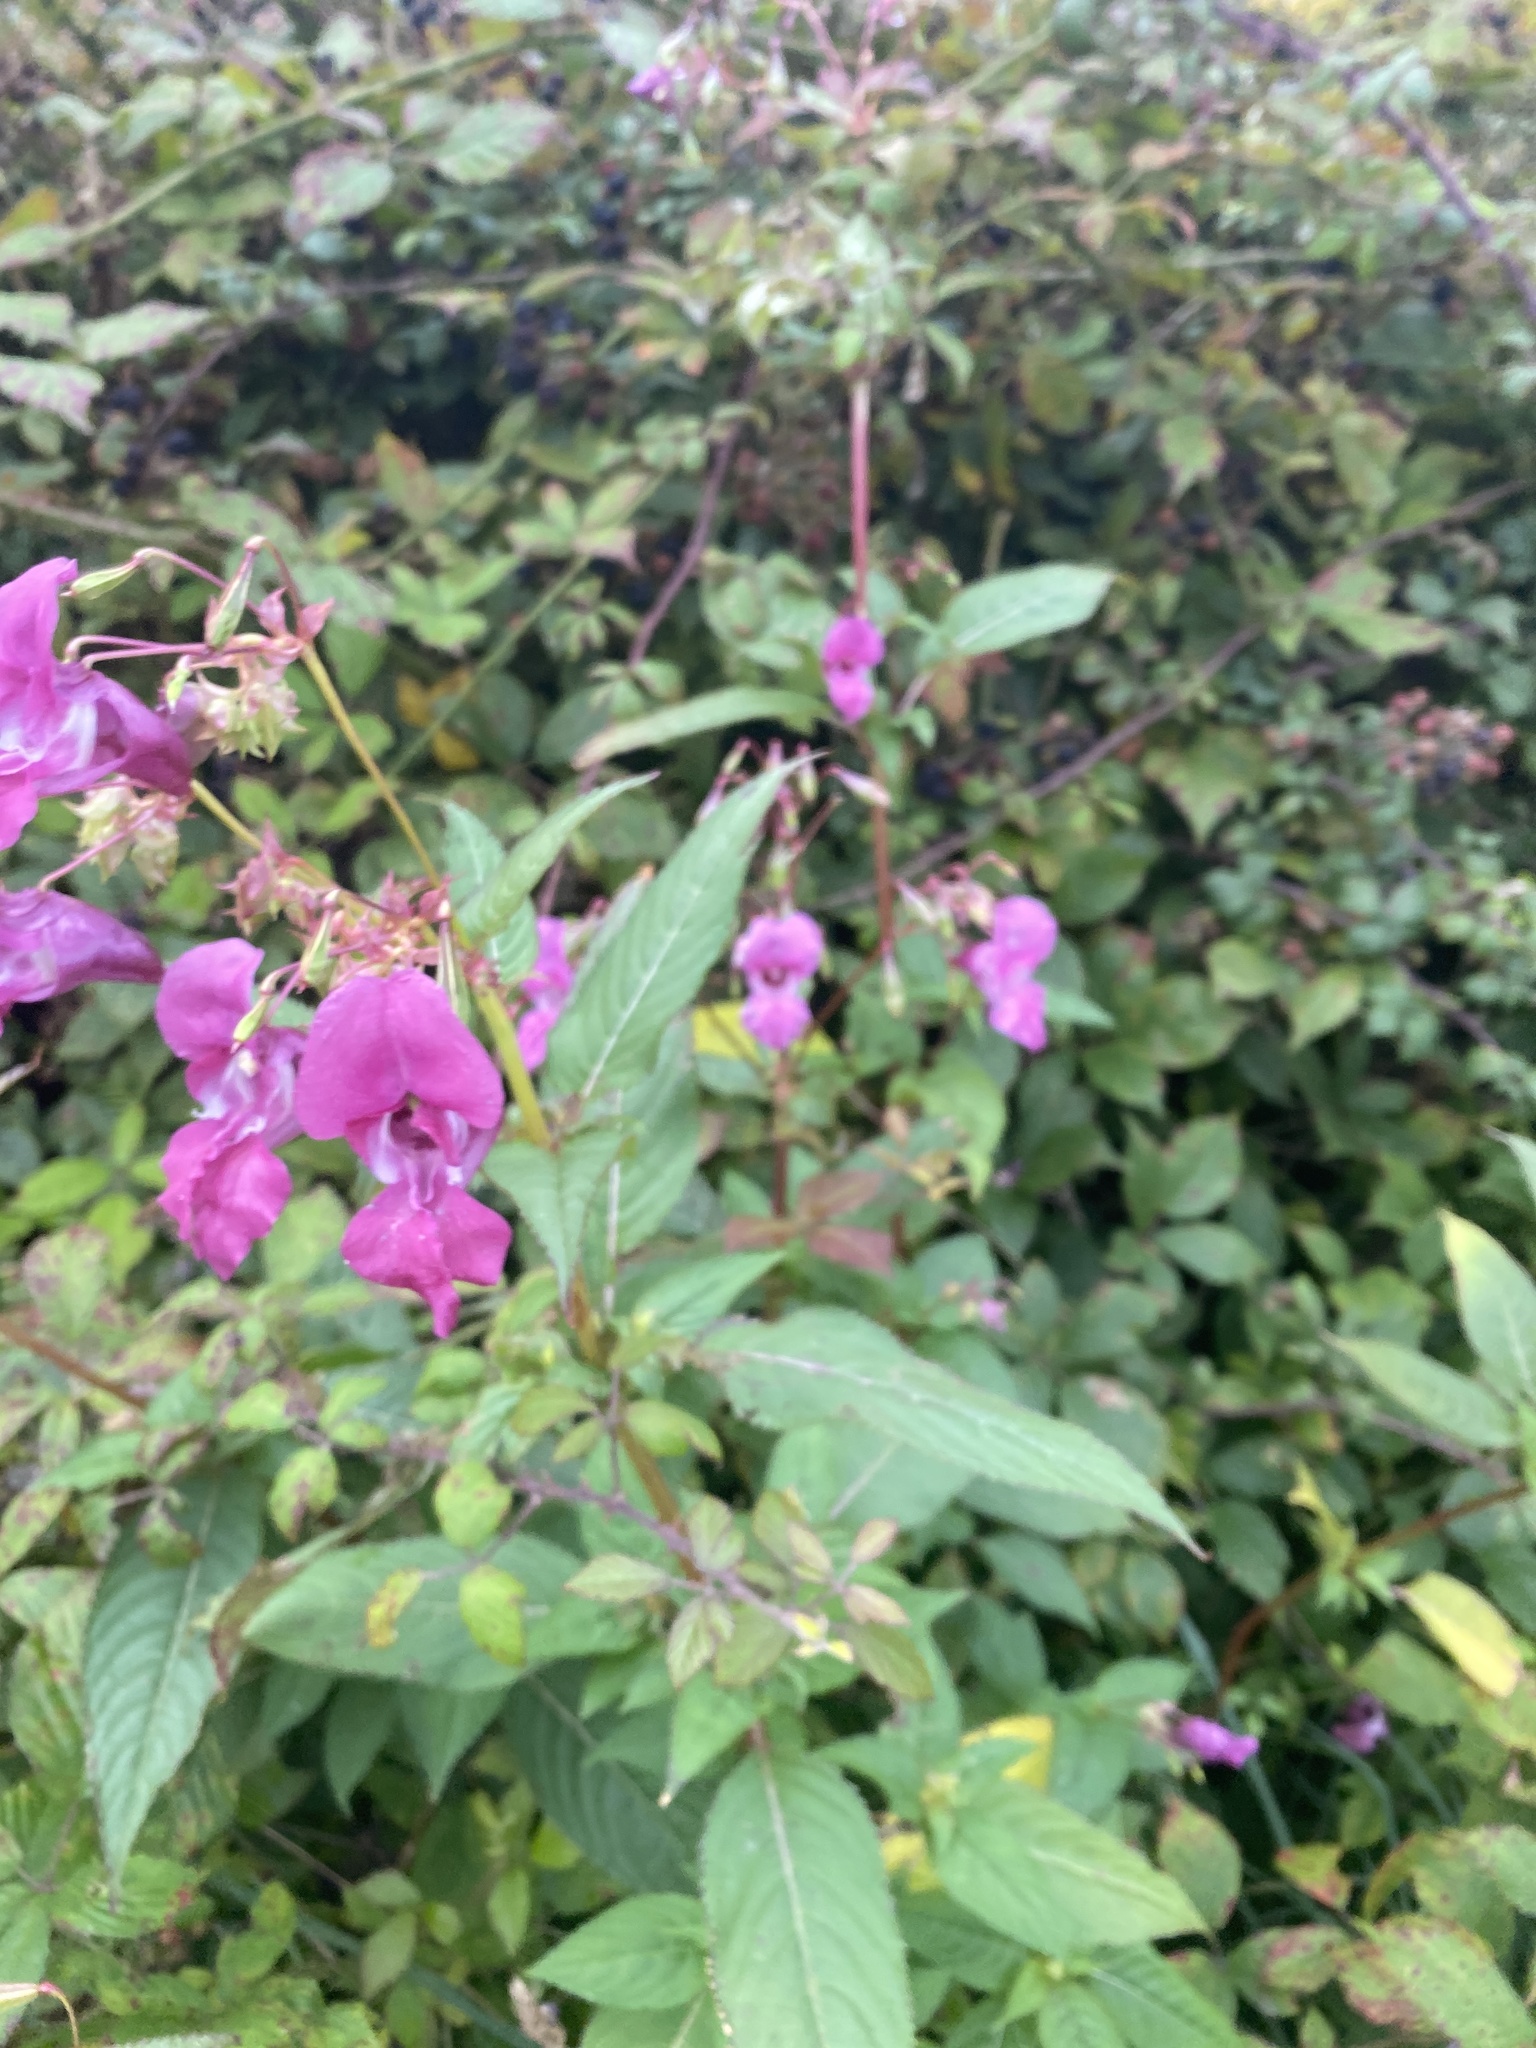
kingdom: Plantae
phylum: Tracheophyta
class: Magnoliopsida
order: Ericales
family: Balsaminaceae
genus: Impatiens
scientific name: Impatiens glandulifera
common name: Himalayan balsam
